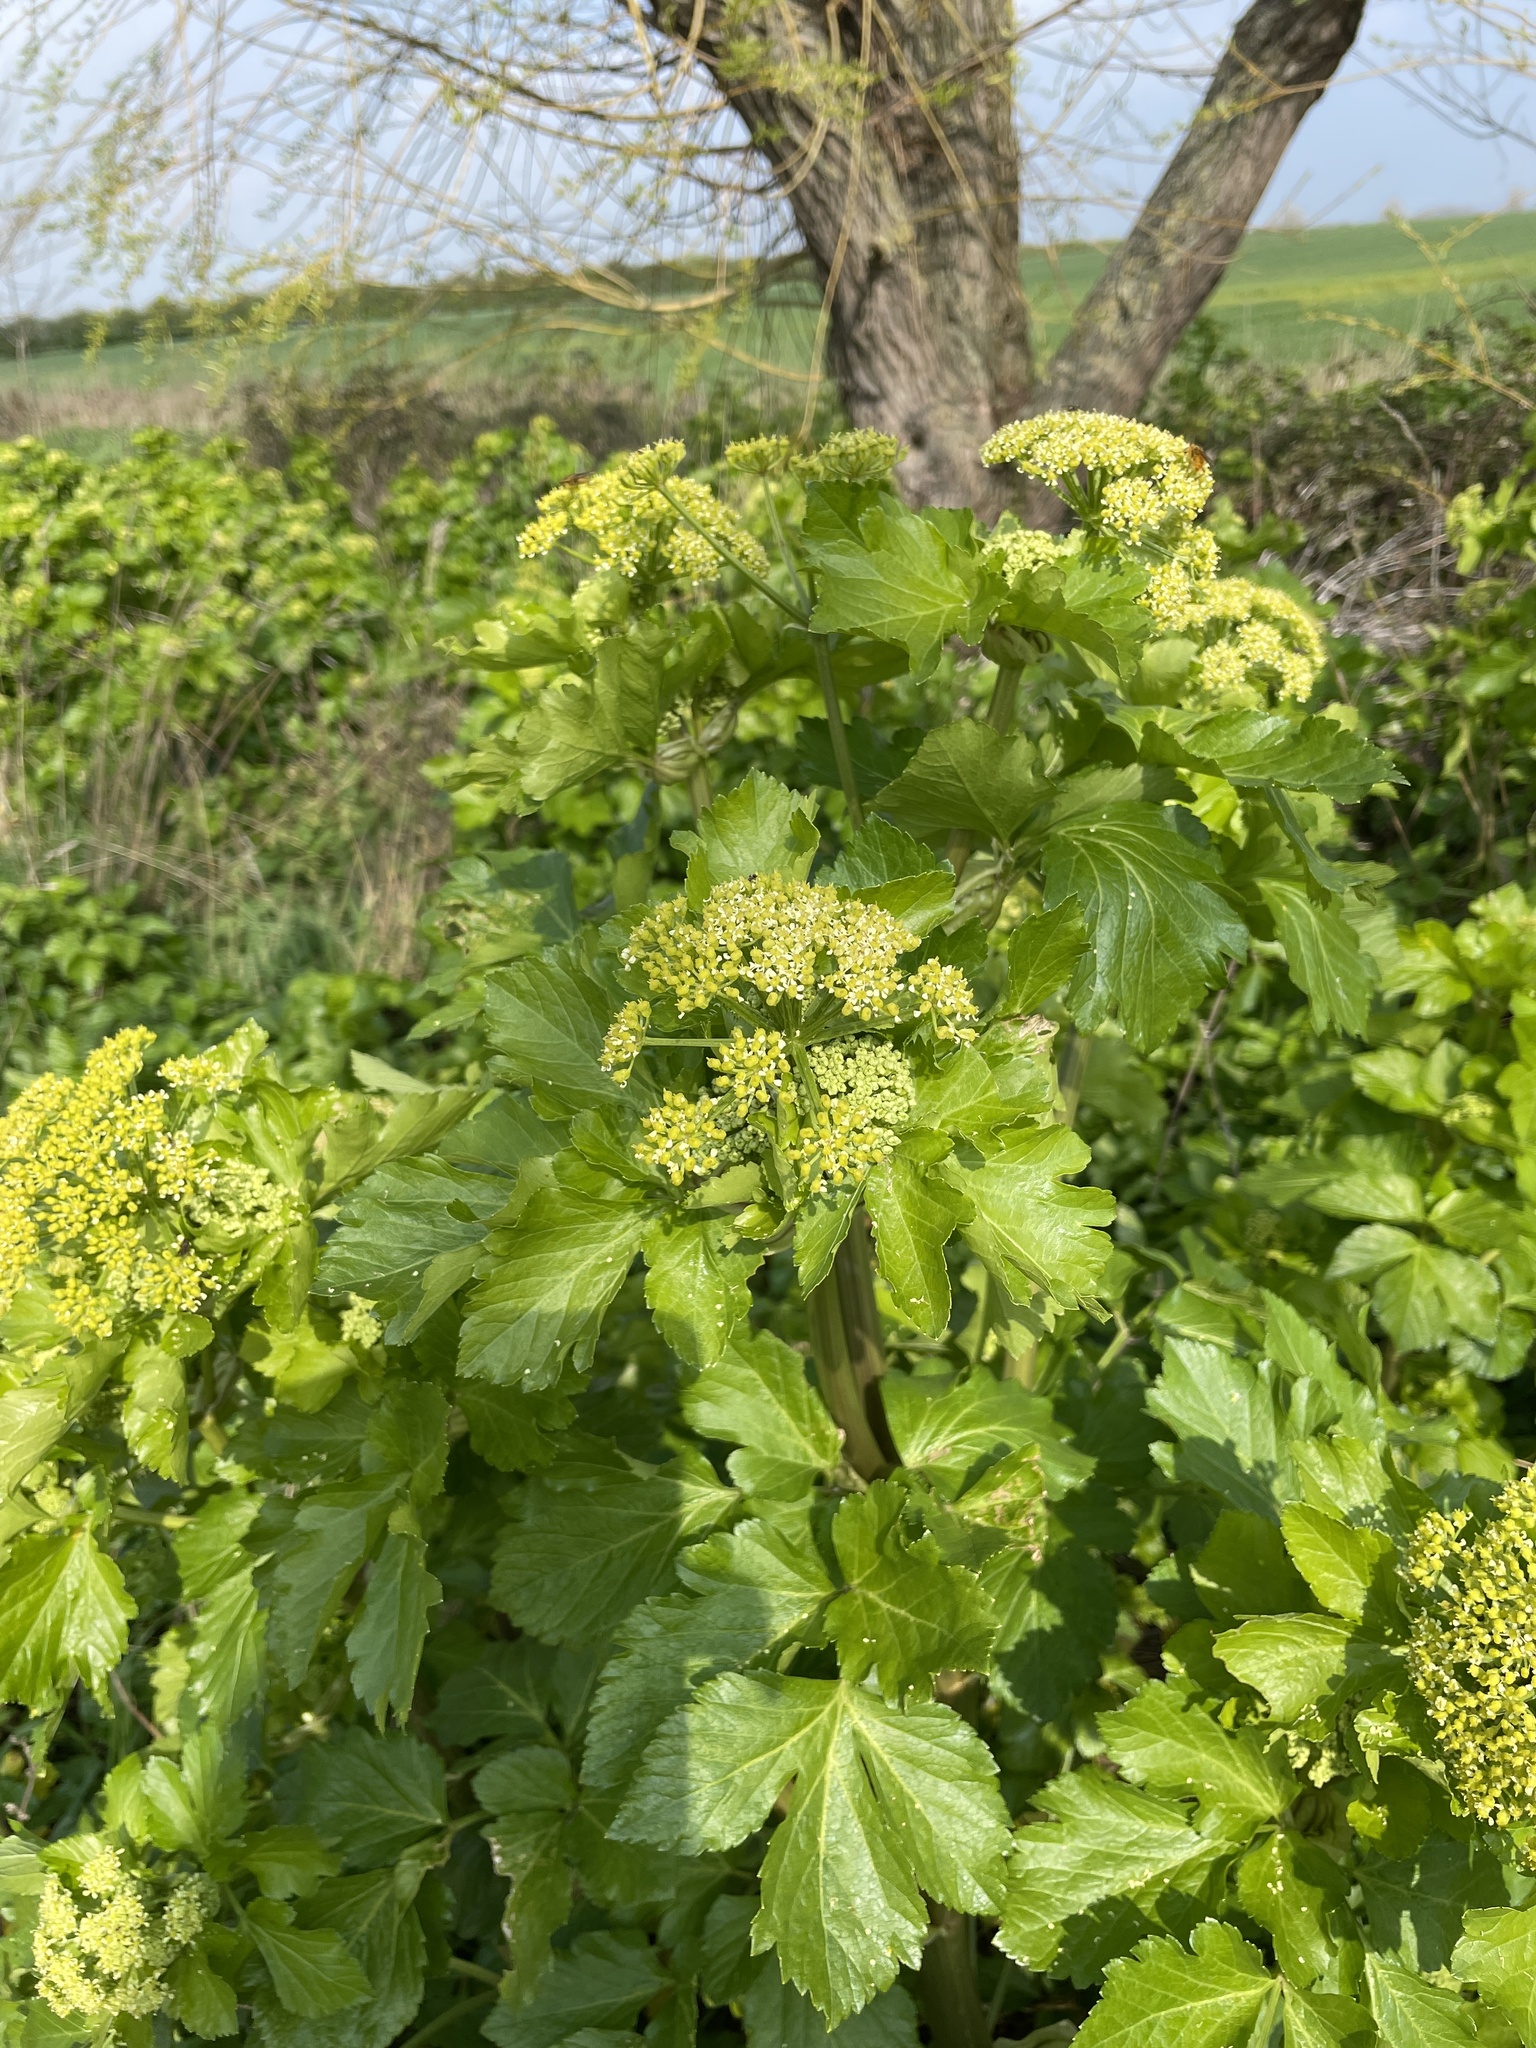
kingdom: Plantae
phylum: Tracheophyta
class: Magnoliopsida
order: Apiales
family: Apiaceae
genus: Smyrnium
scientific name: Smyrnium olusatrum
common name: Alexanders
